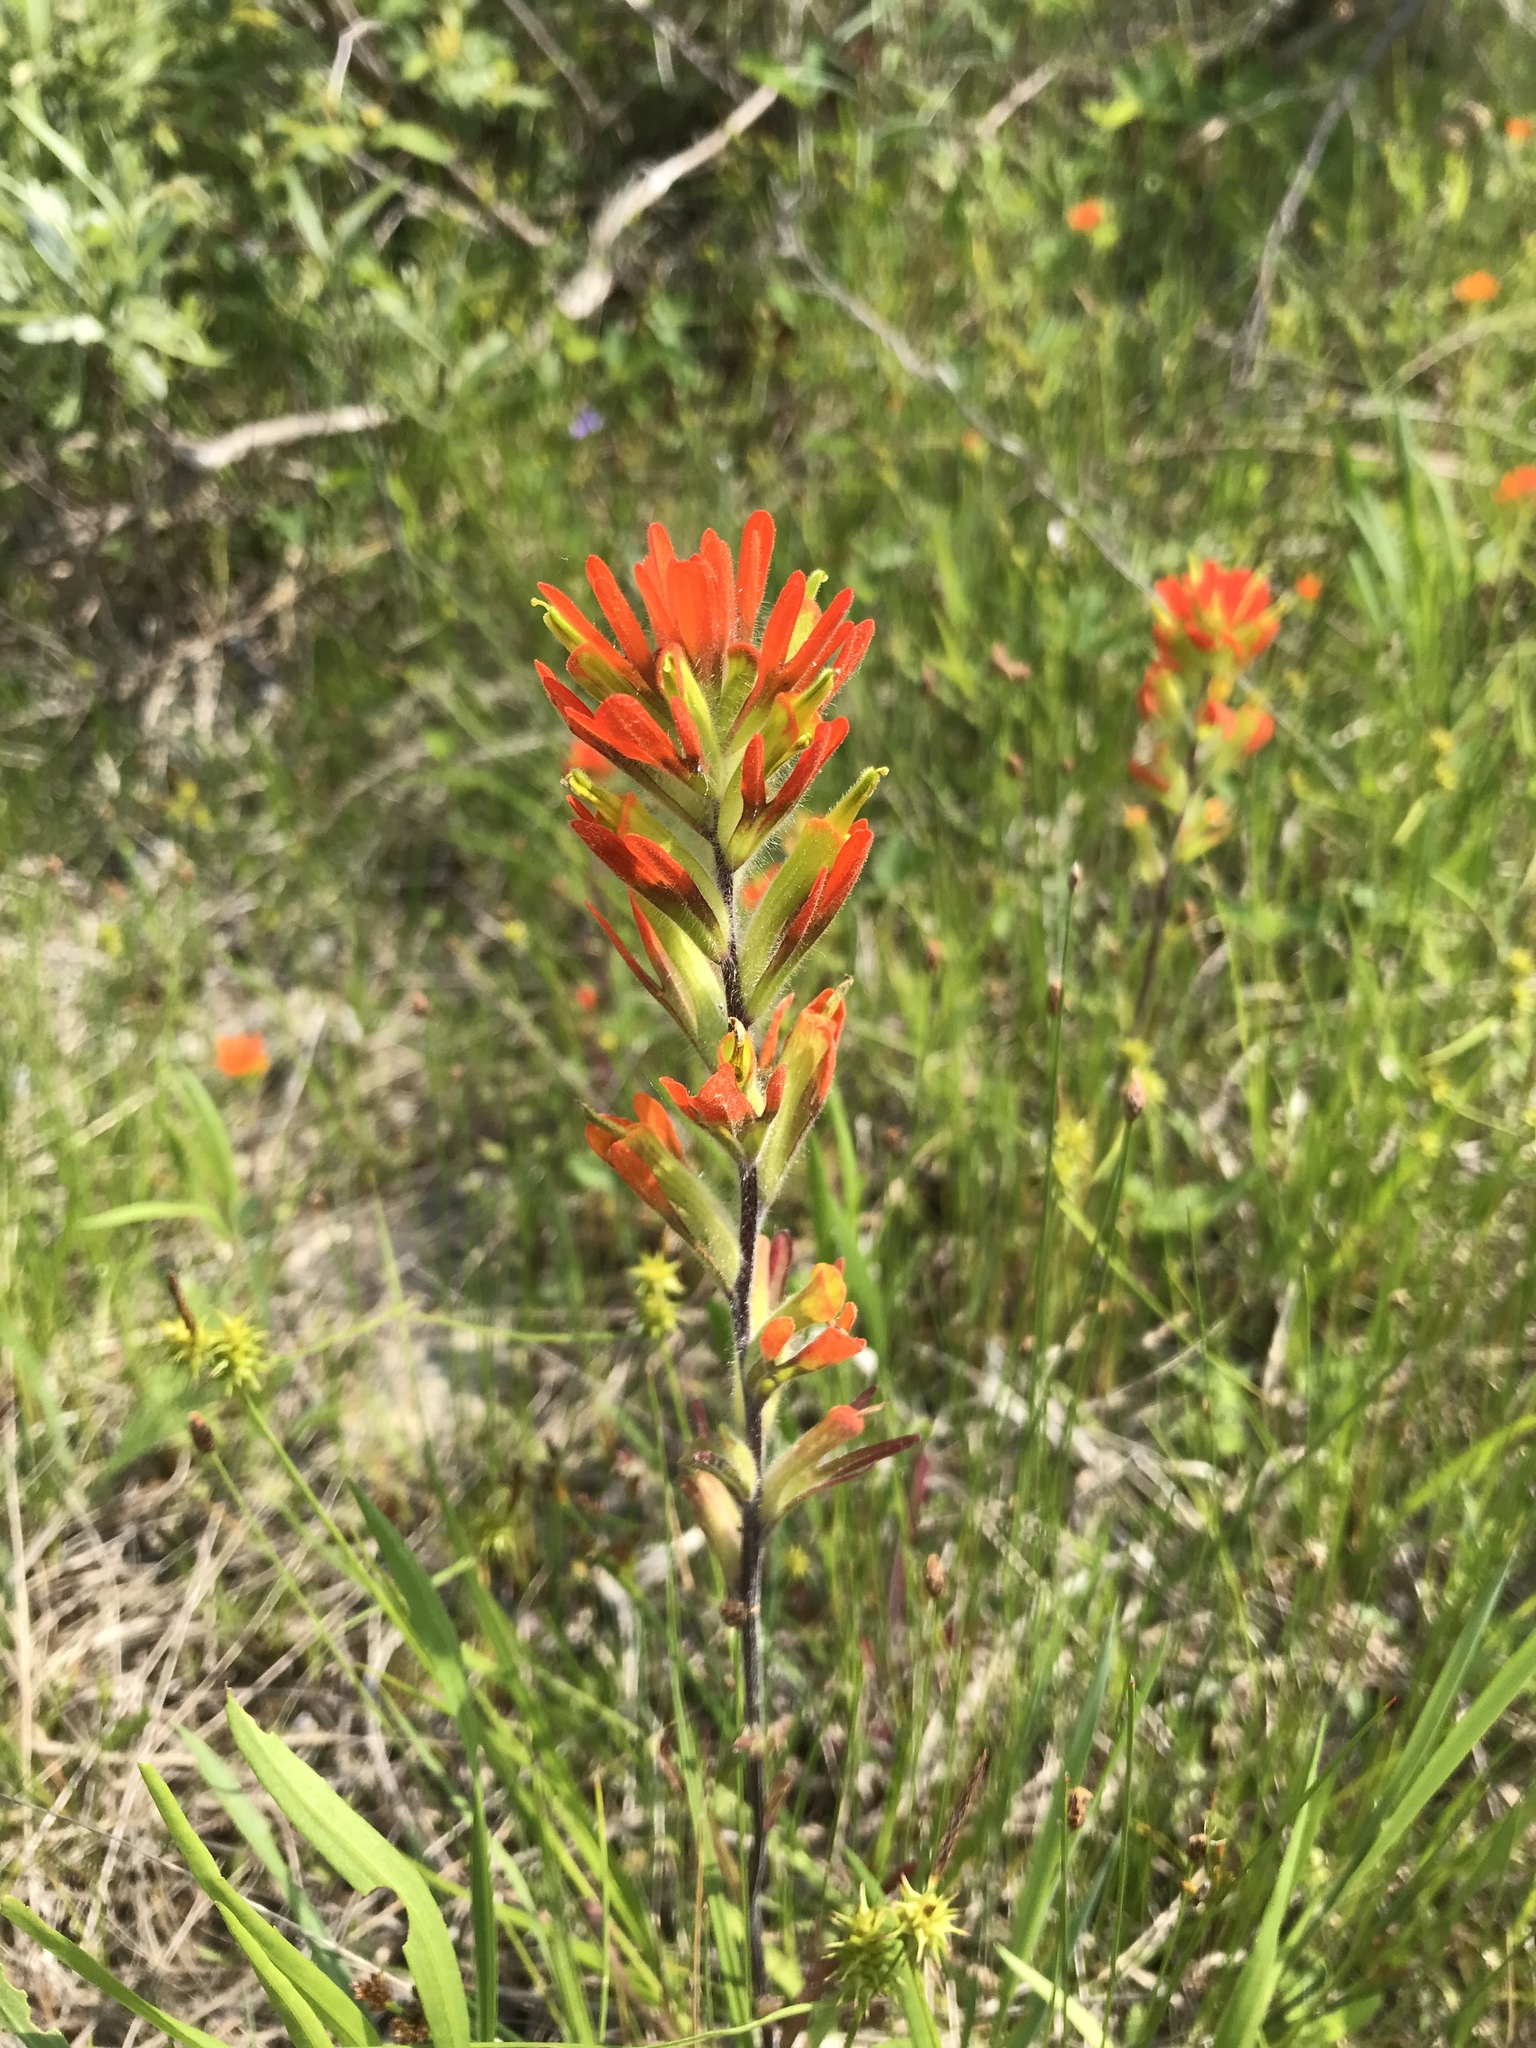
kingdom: Plantae
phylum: Tracheophyta
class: Magnoliopsida
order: Lamiales
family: Orobanchaceae
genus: Castilleja
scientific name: Castilleja coccinea
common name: Scarlet paintbrush
